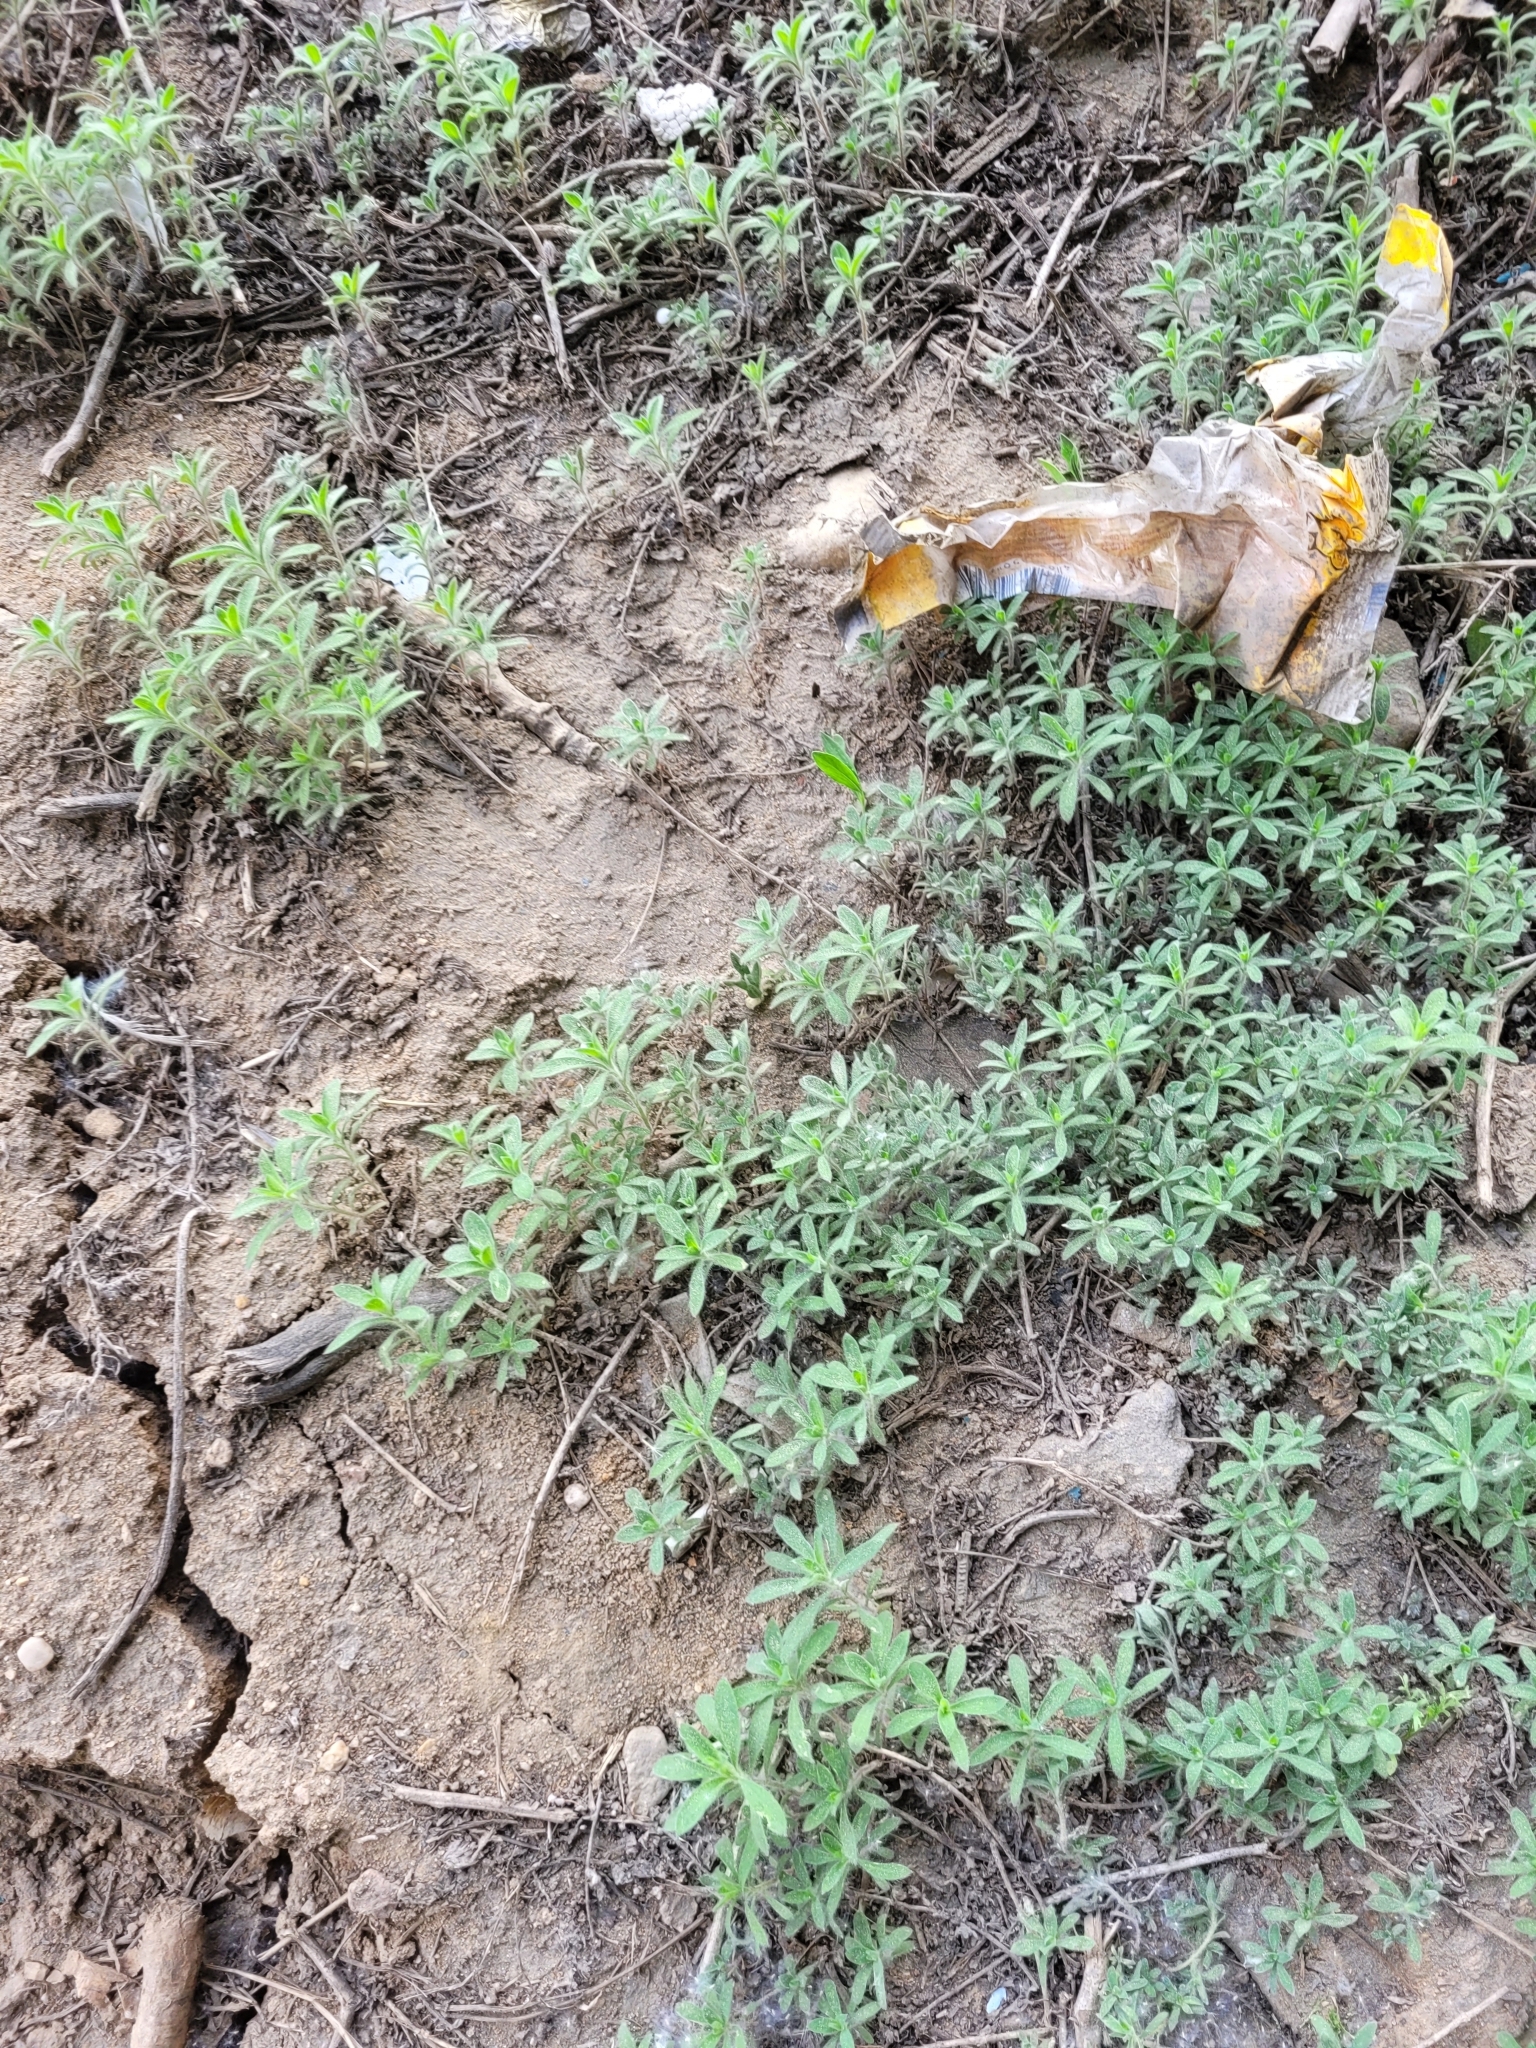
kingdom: Plantae
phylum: Tracheophyta
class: Magnoliopsida
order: Caryophyllales
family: Amaranthaceae
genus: Bassia
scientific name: Bassia scoparia
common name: Belvedere
